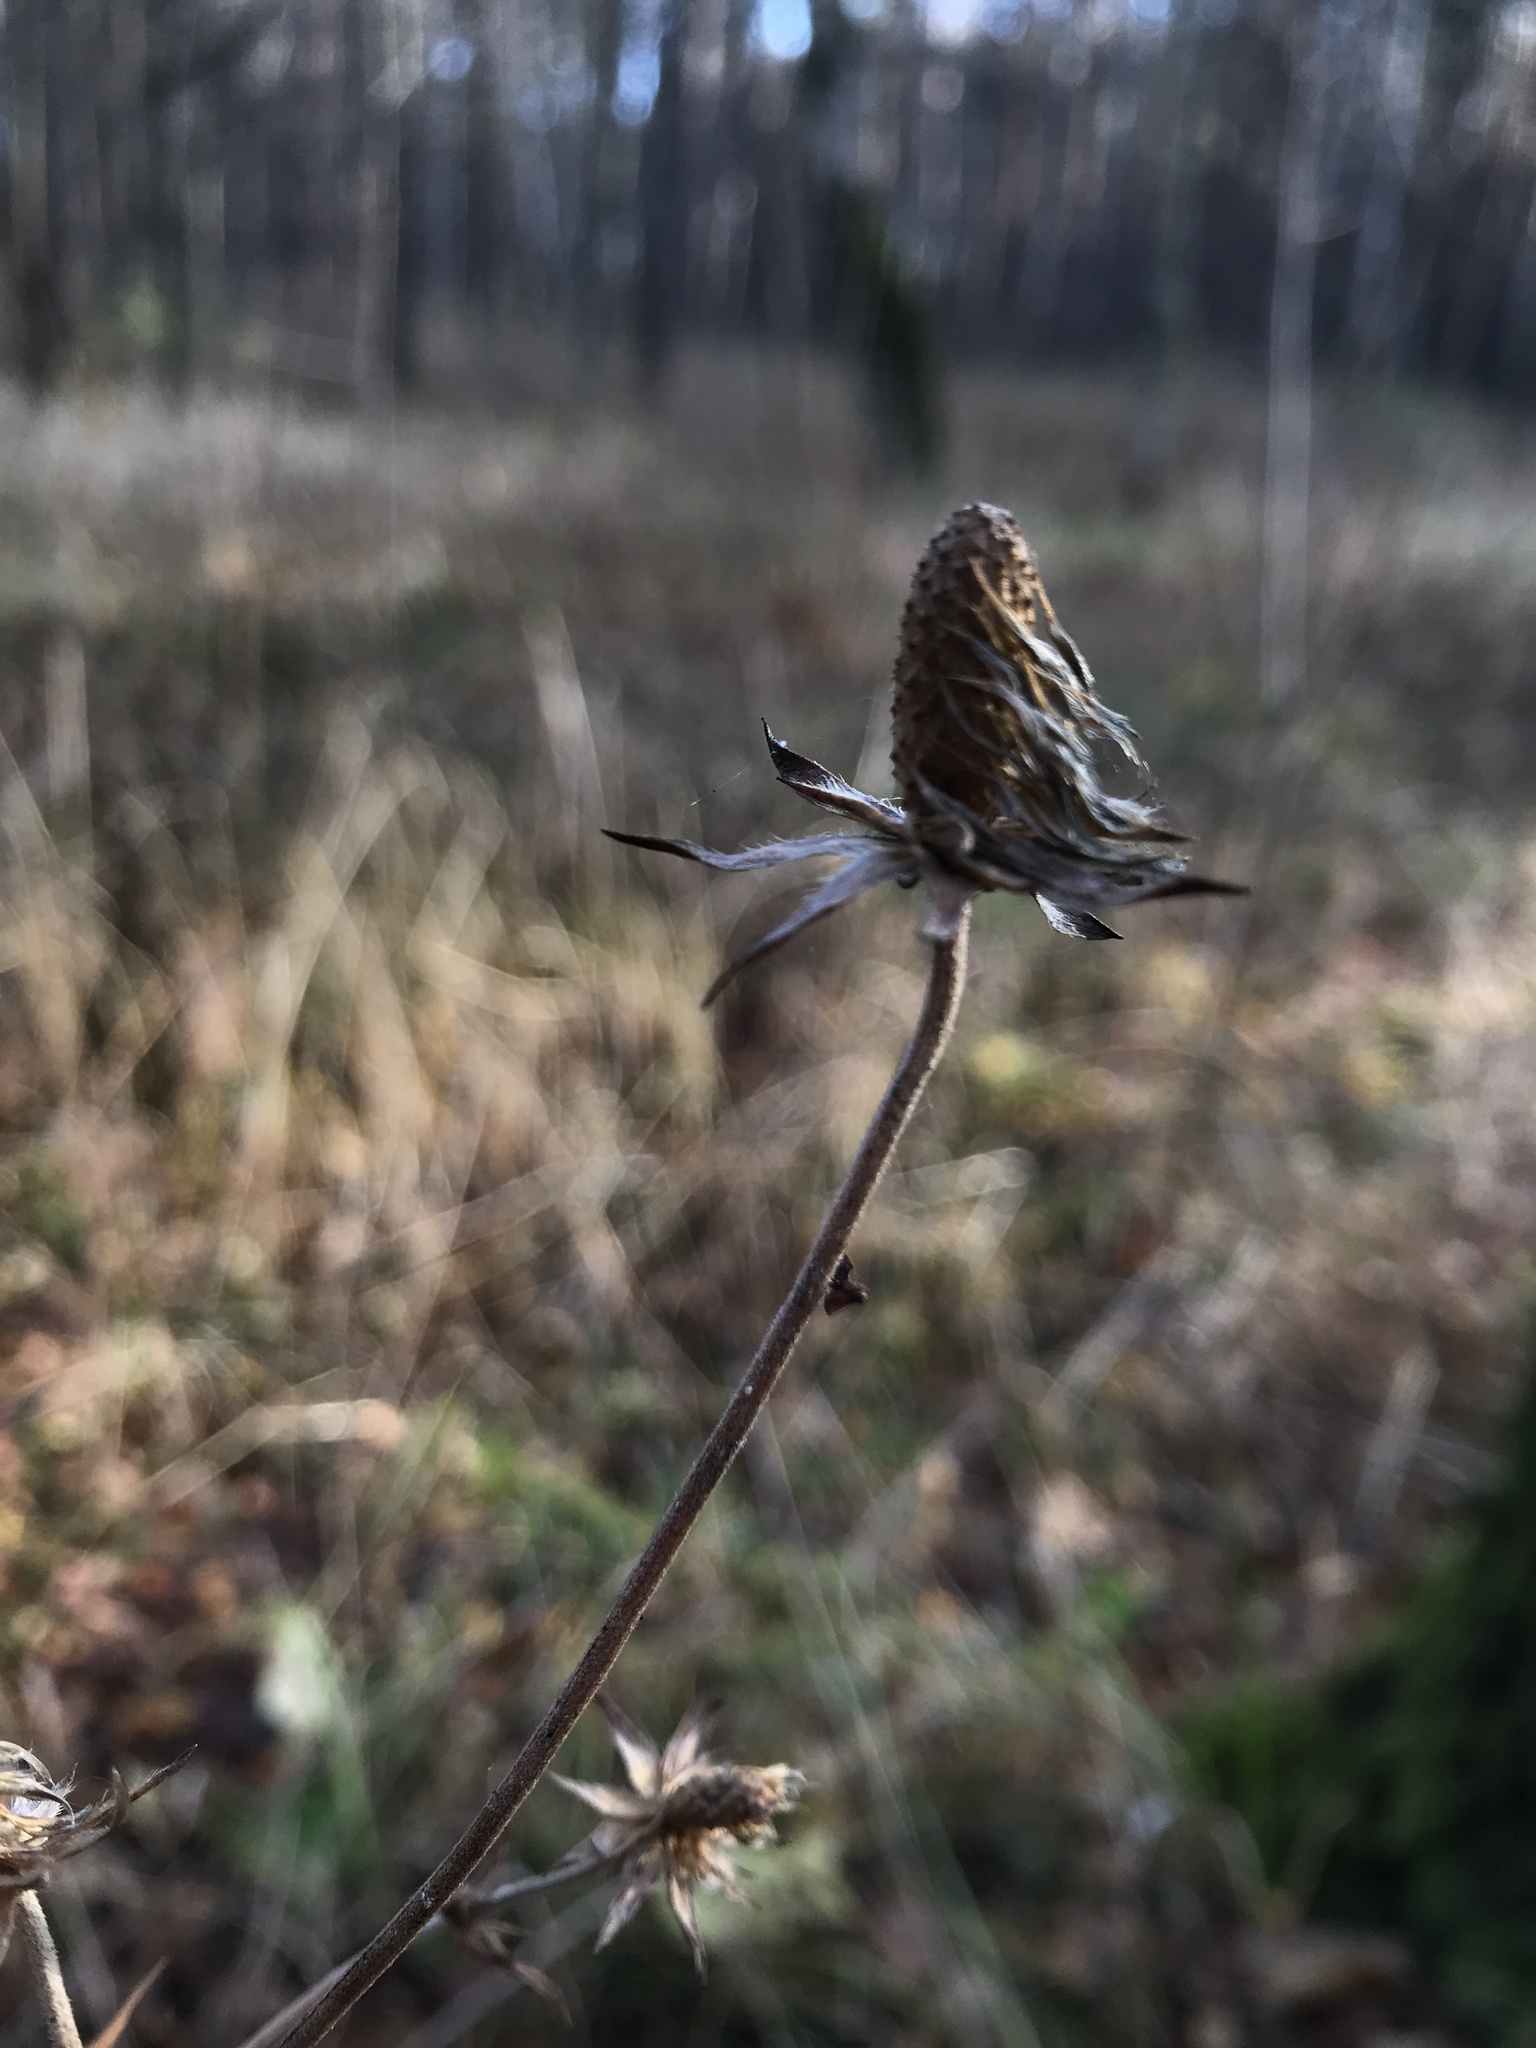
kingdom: Plantae
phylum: Tracheophyta
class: Magnoliopsida
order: Dipsacales
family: Caprifoliaceae
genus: Succisa
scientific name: Succisa pratensis
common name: Devil's-bit
